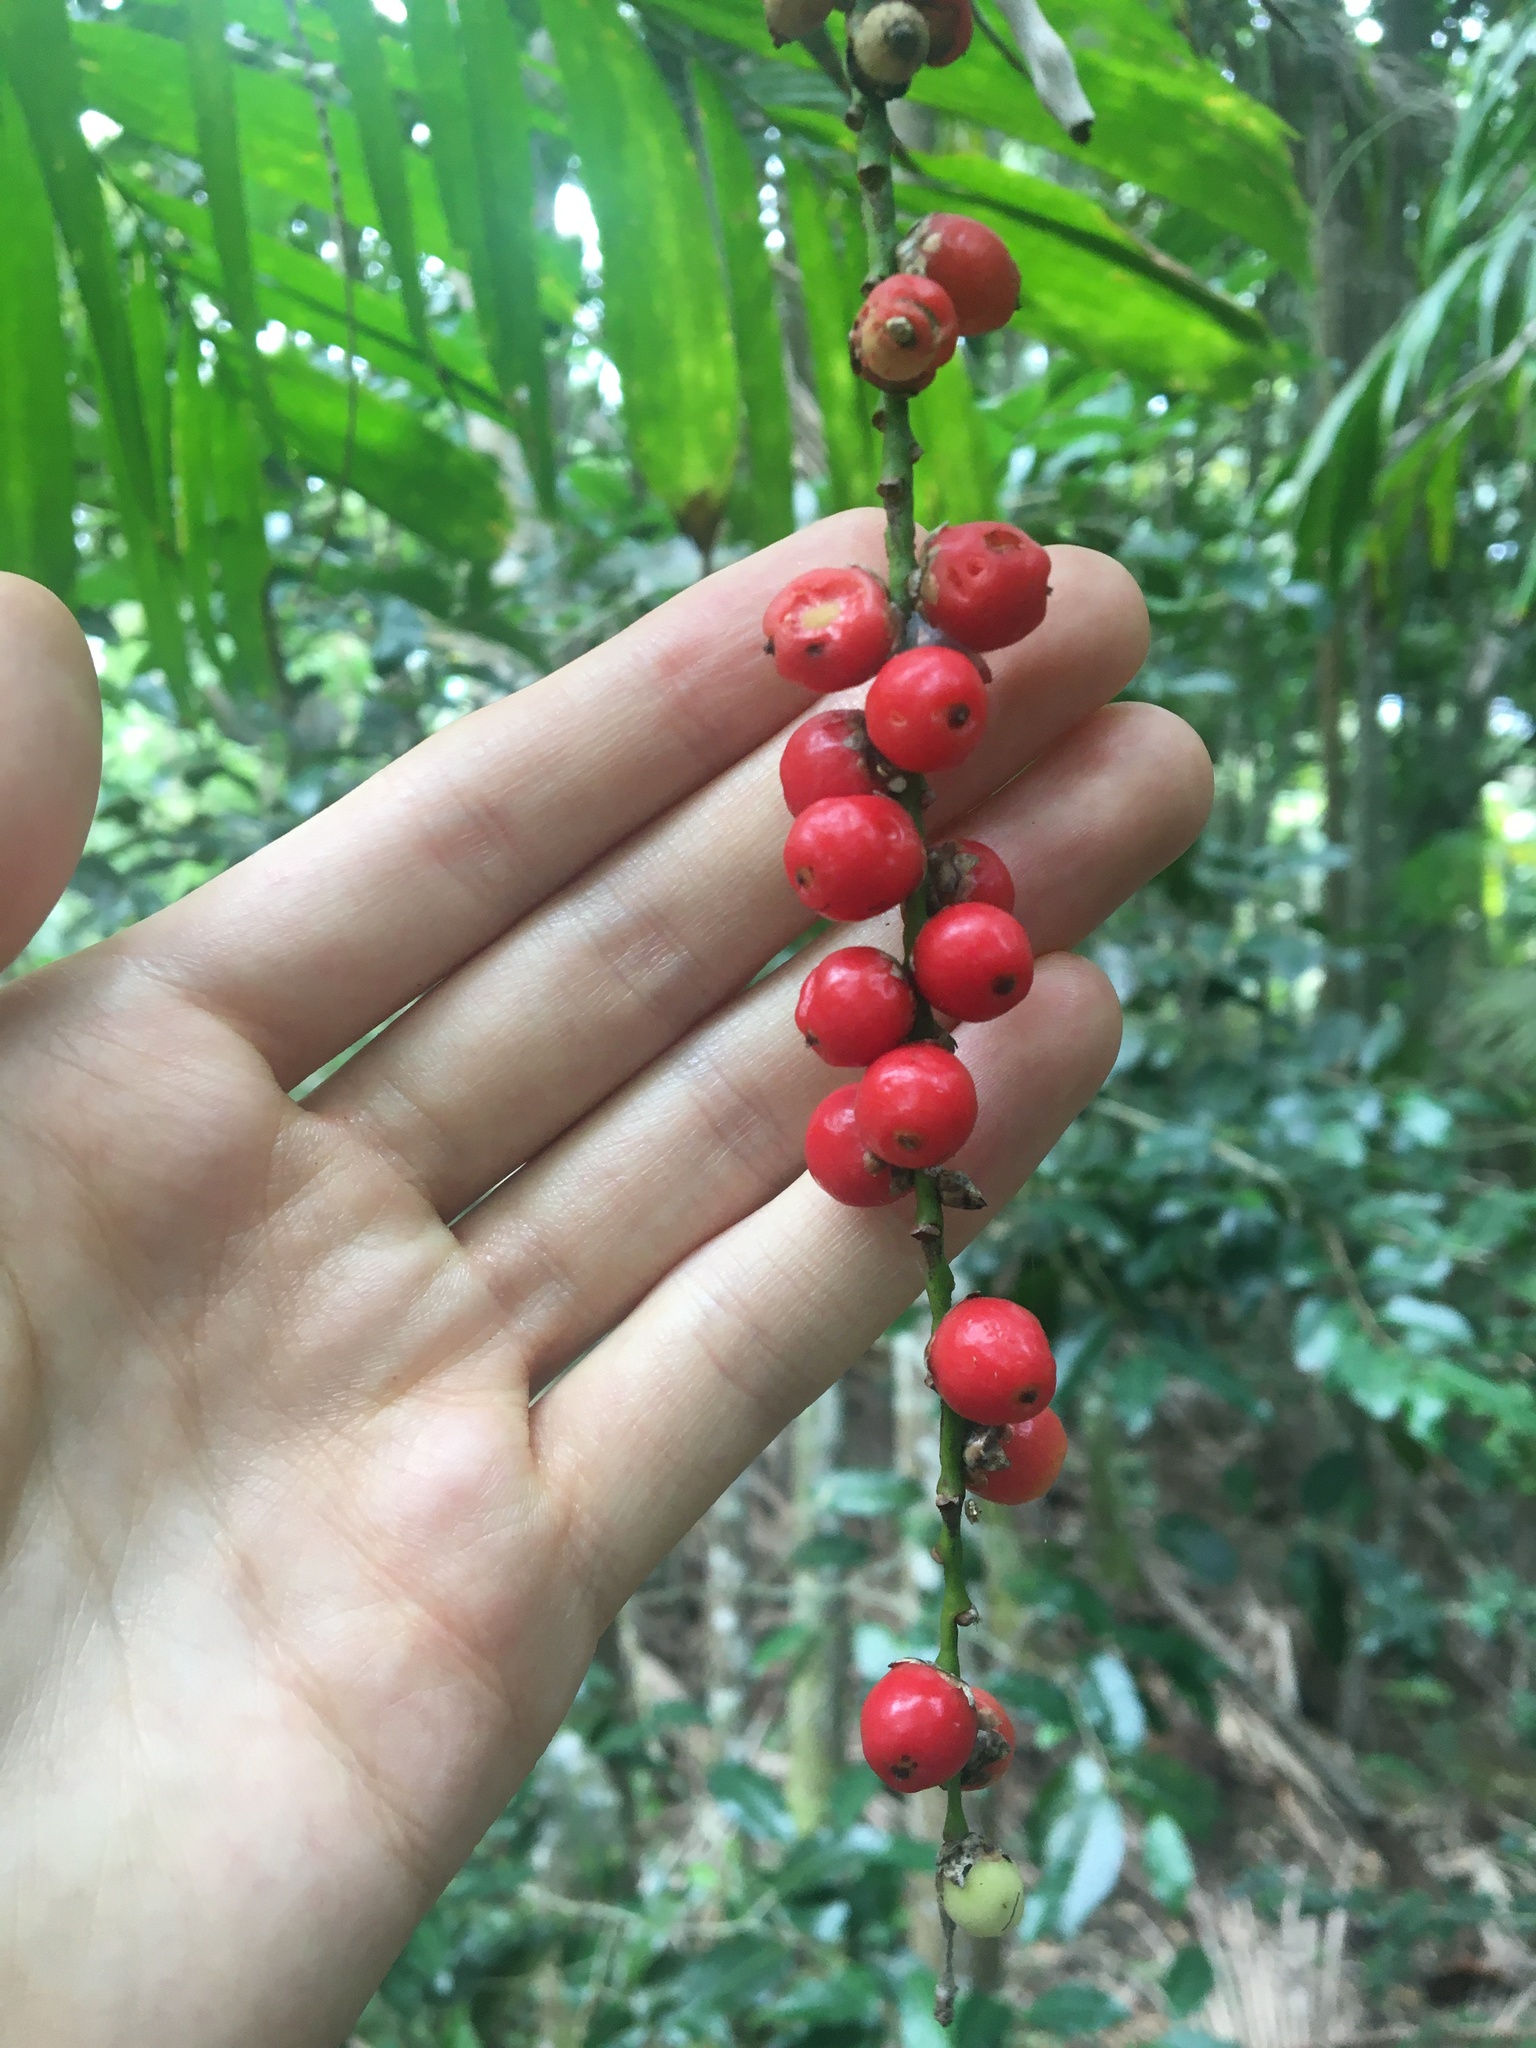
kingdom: Plantae
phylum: Tracheophyta
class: Liliopsida
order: Arecales
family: Arecaceae
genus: Linospadix
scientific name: Linospadix monostachyus
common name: Walking-stick palm
